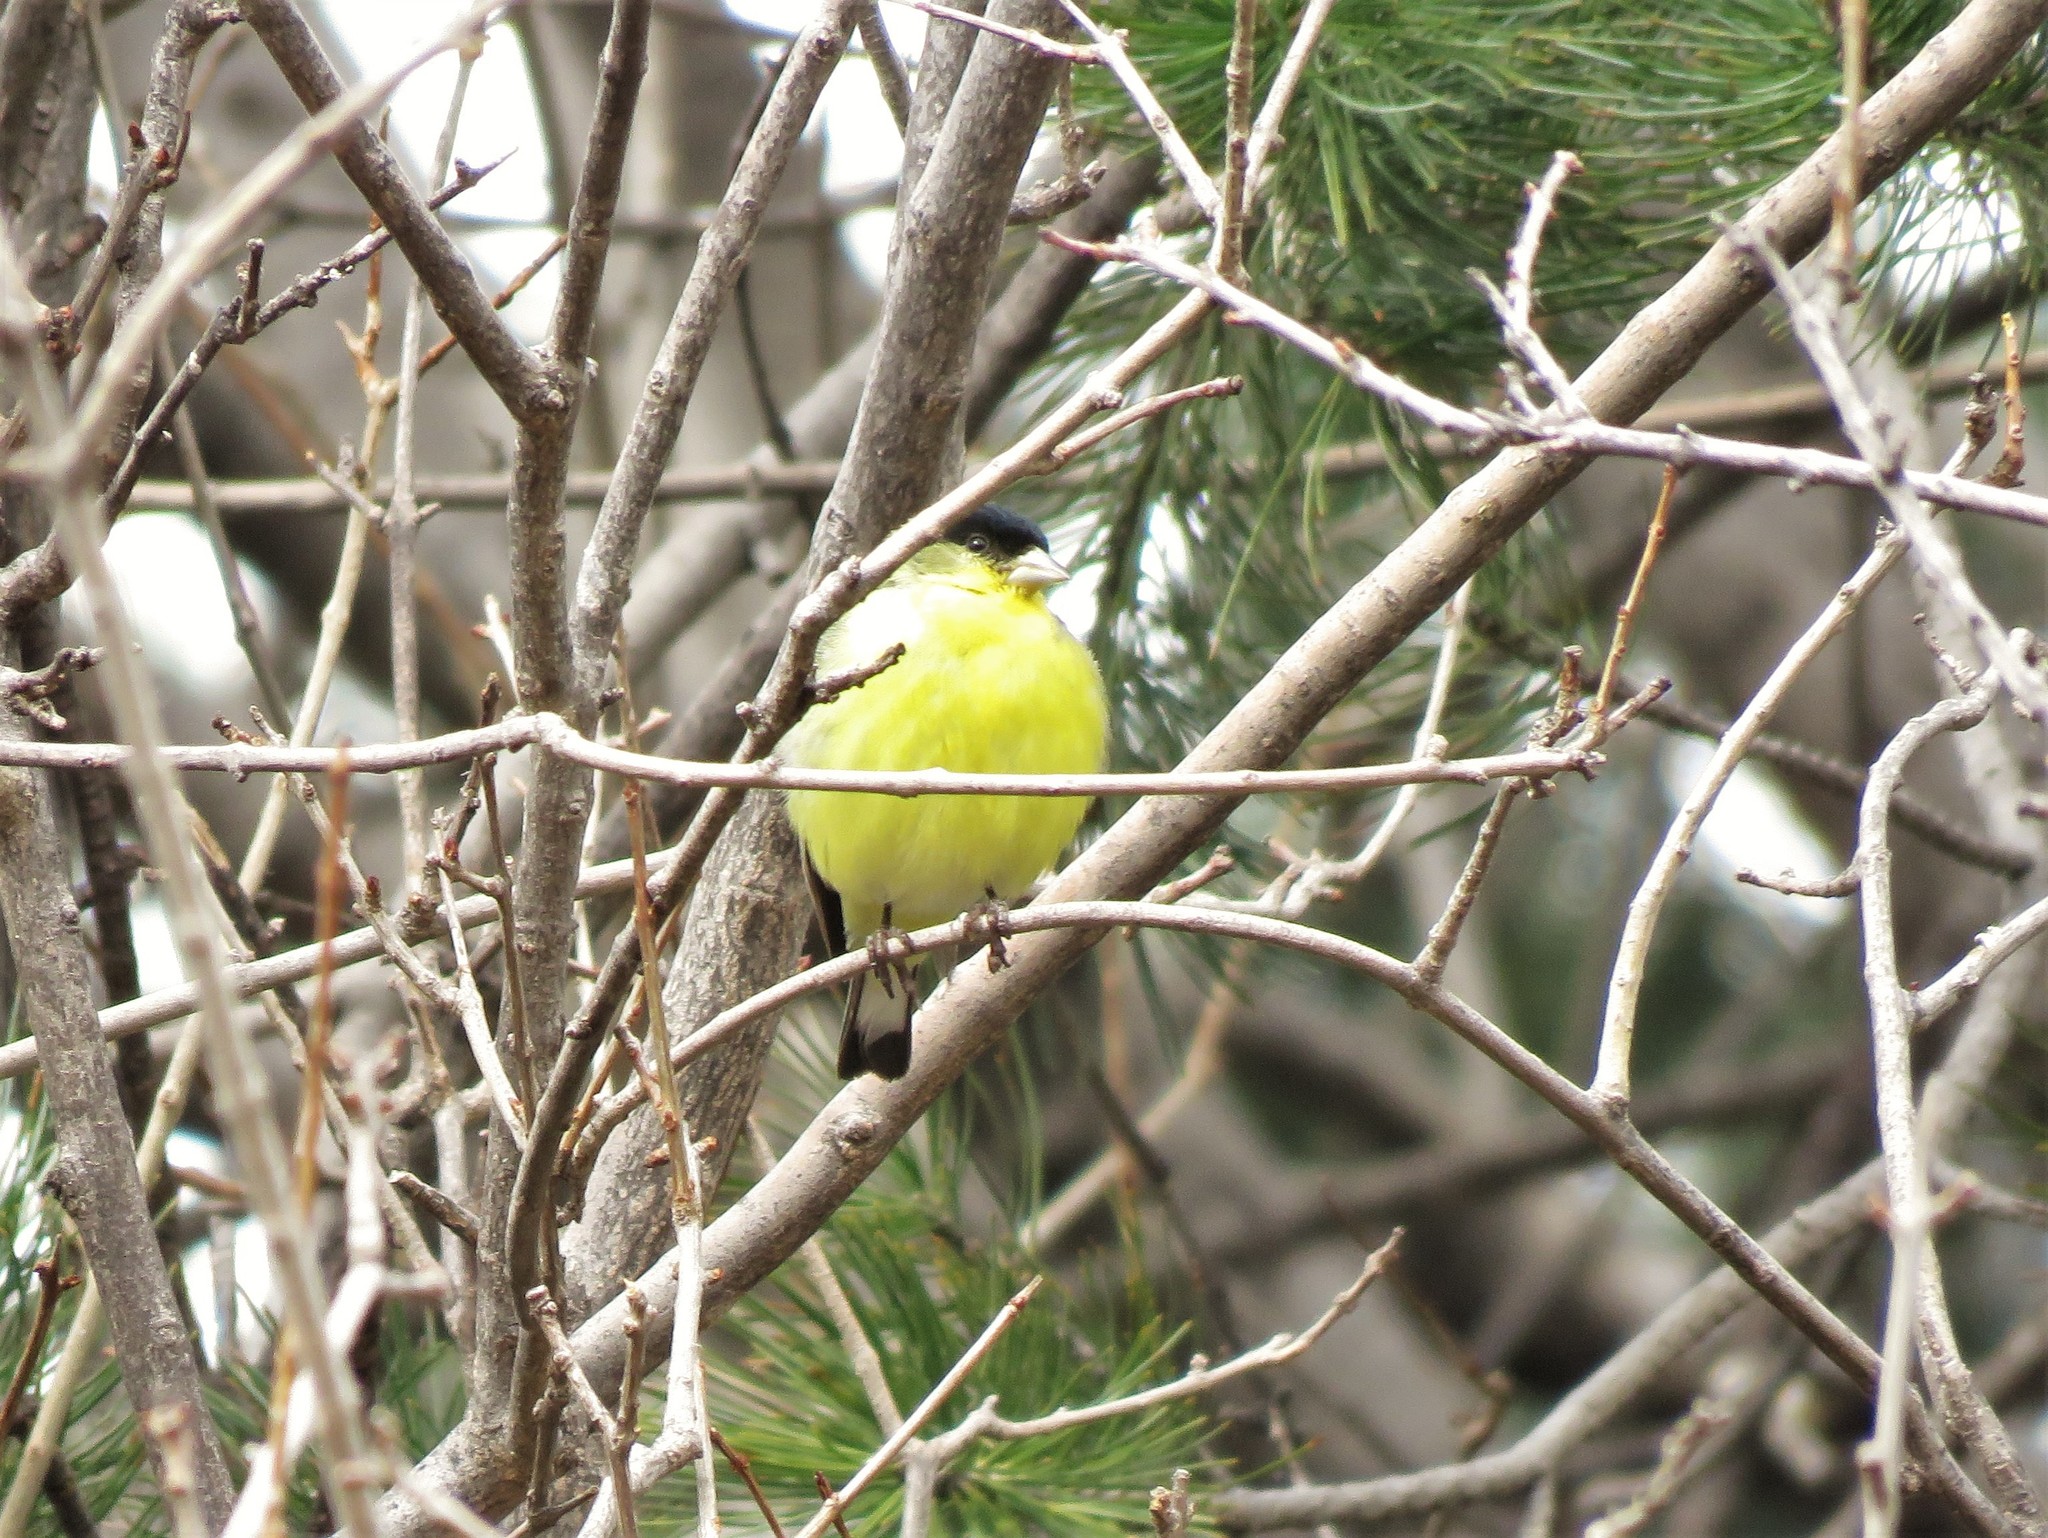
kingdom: Animalia
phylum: Chordata
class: Aves
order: Passeriformes
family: Fringillidae
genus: Spinus
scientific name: Spinus psaltria
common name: Lesser goldfinch
